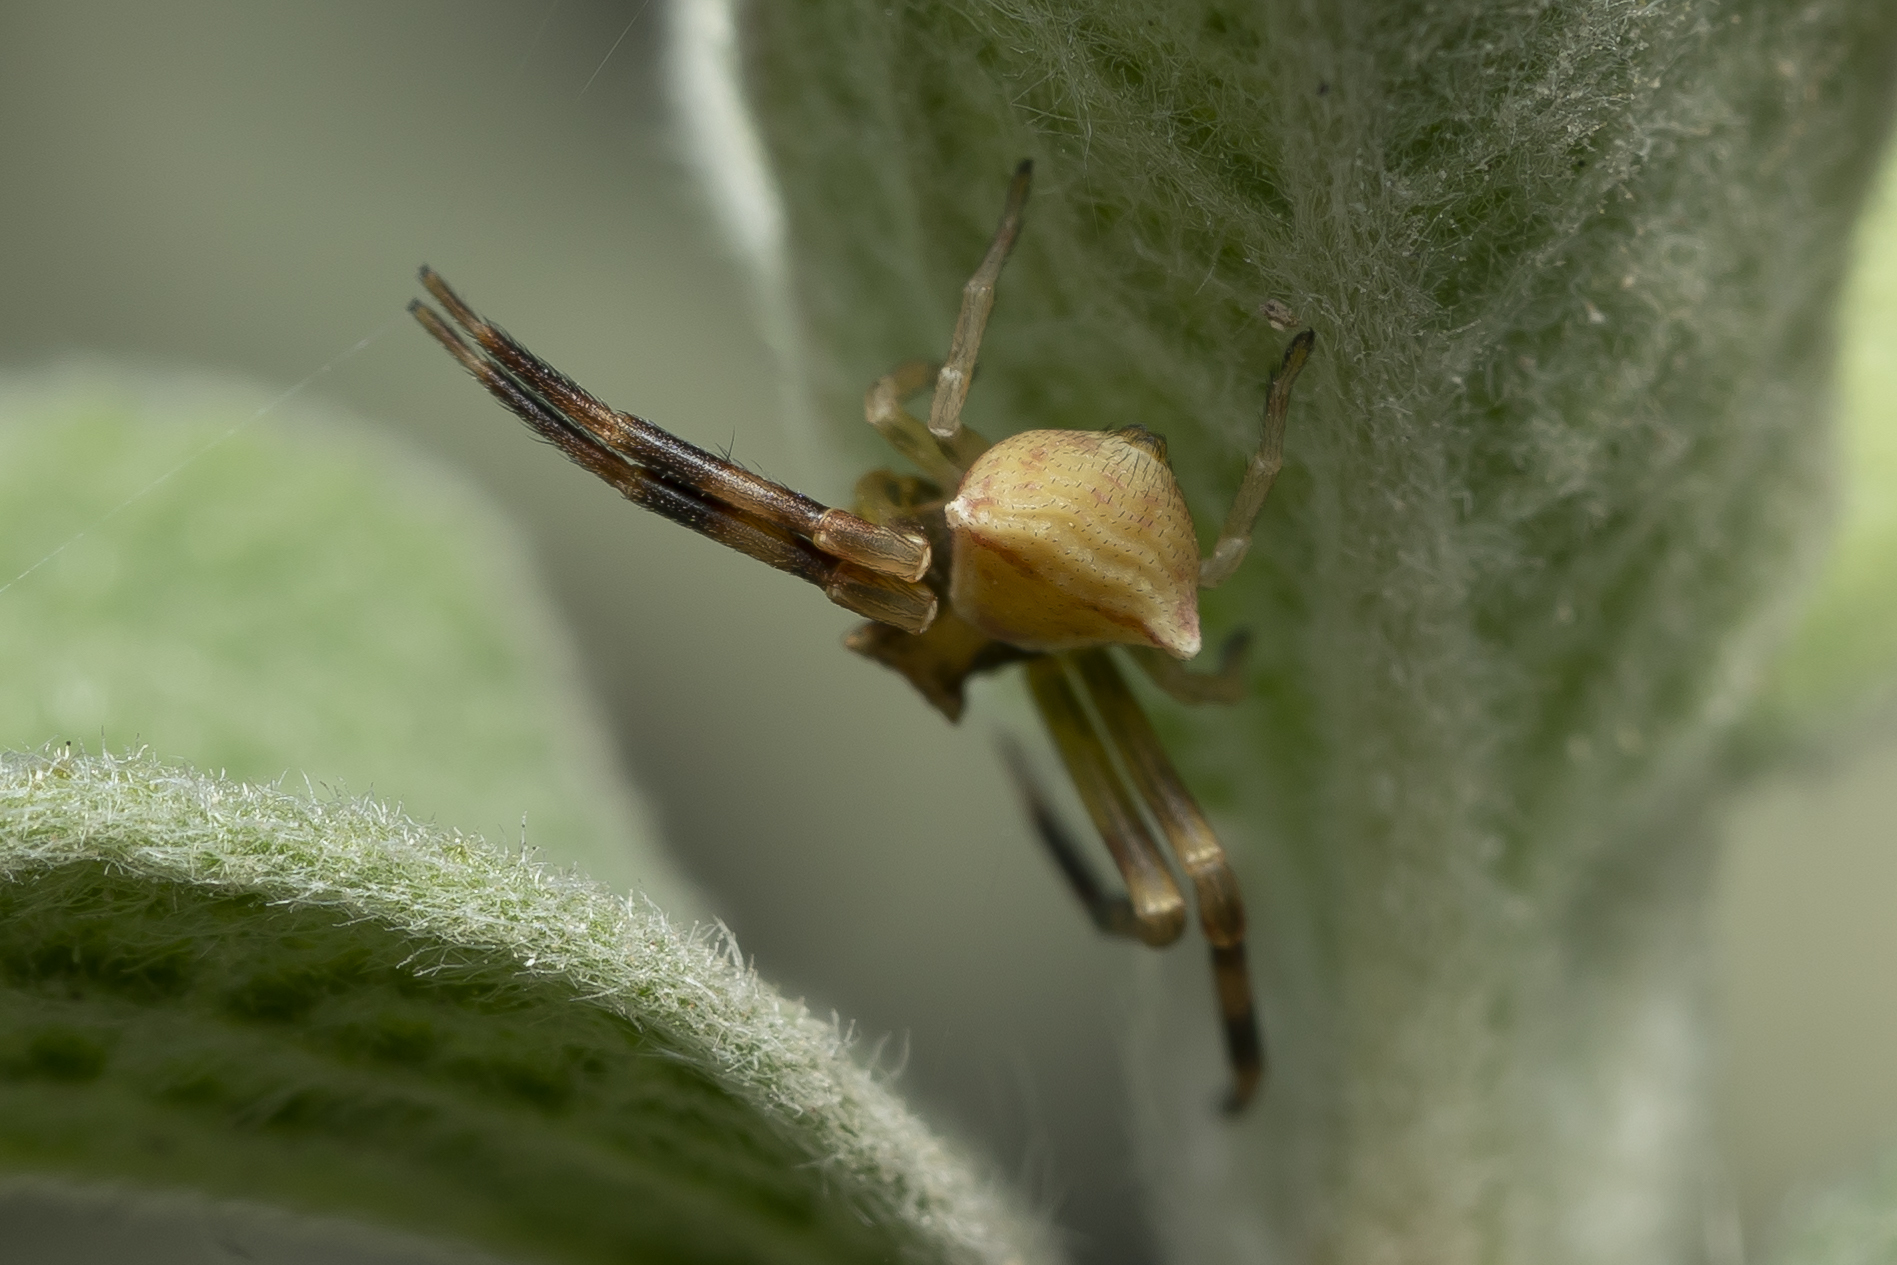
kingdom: Animalia
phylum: Arthropoda
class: Arachnida
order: Araneae
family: Thomisidae
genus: Thomisus
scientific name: Thomisus onustus
